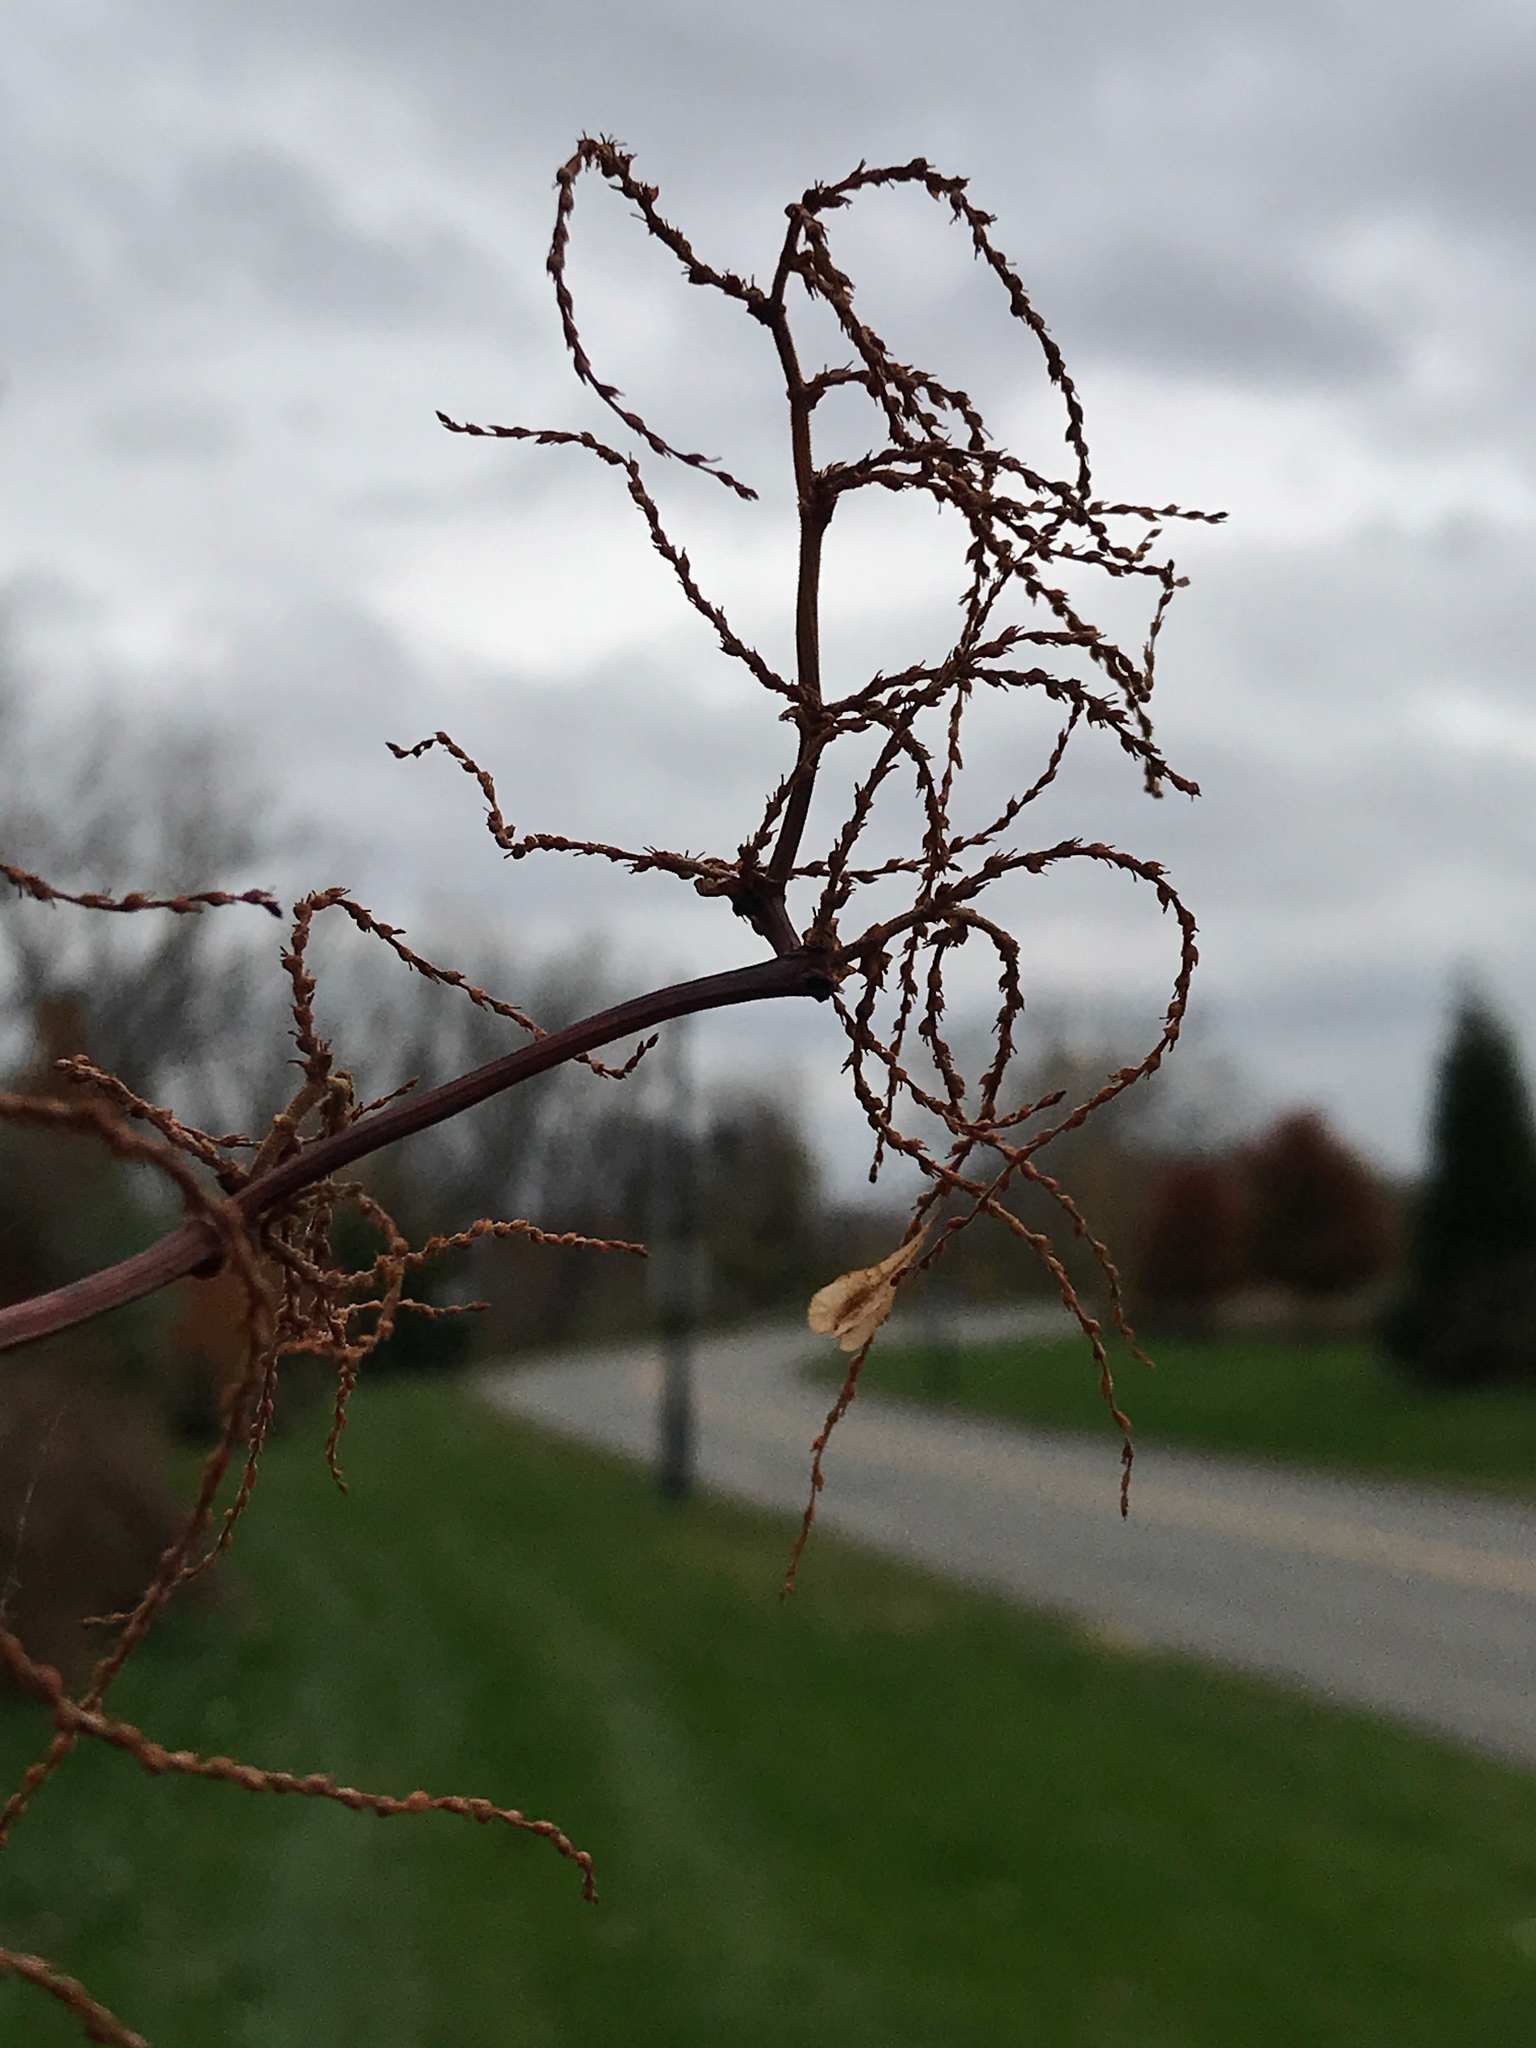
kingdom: Plantae
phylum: Tracheophyta
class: Magnoliopsida
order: Caryophyllales
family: Polygonaceae
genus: Reynoutria
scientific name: Reynoutria japonica
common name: Japanese knotweed
